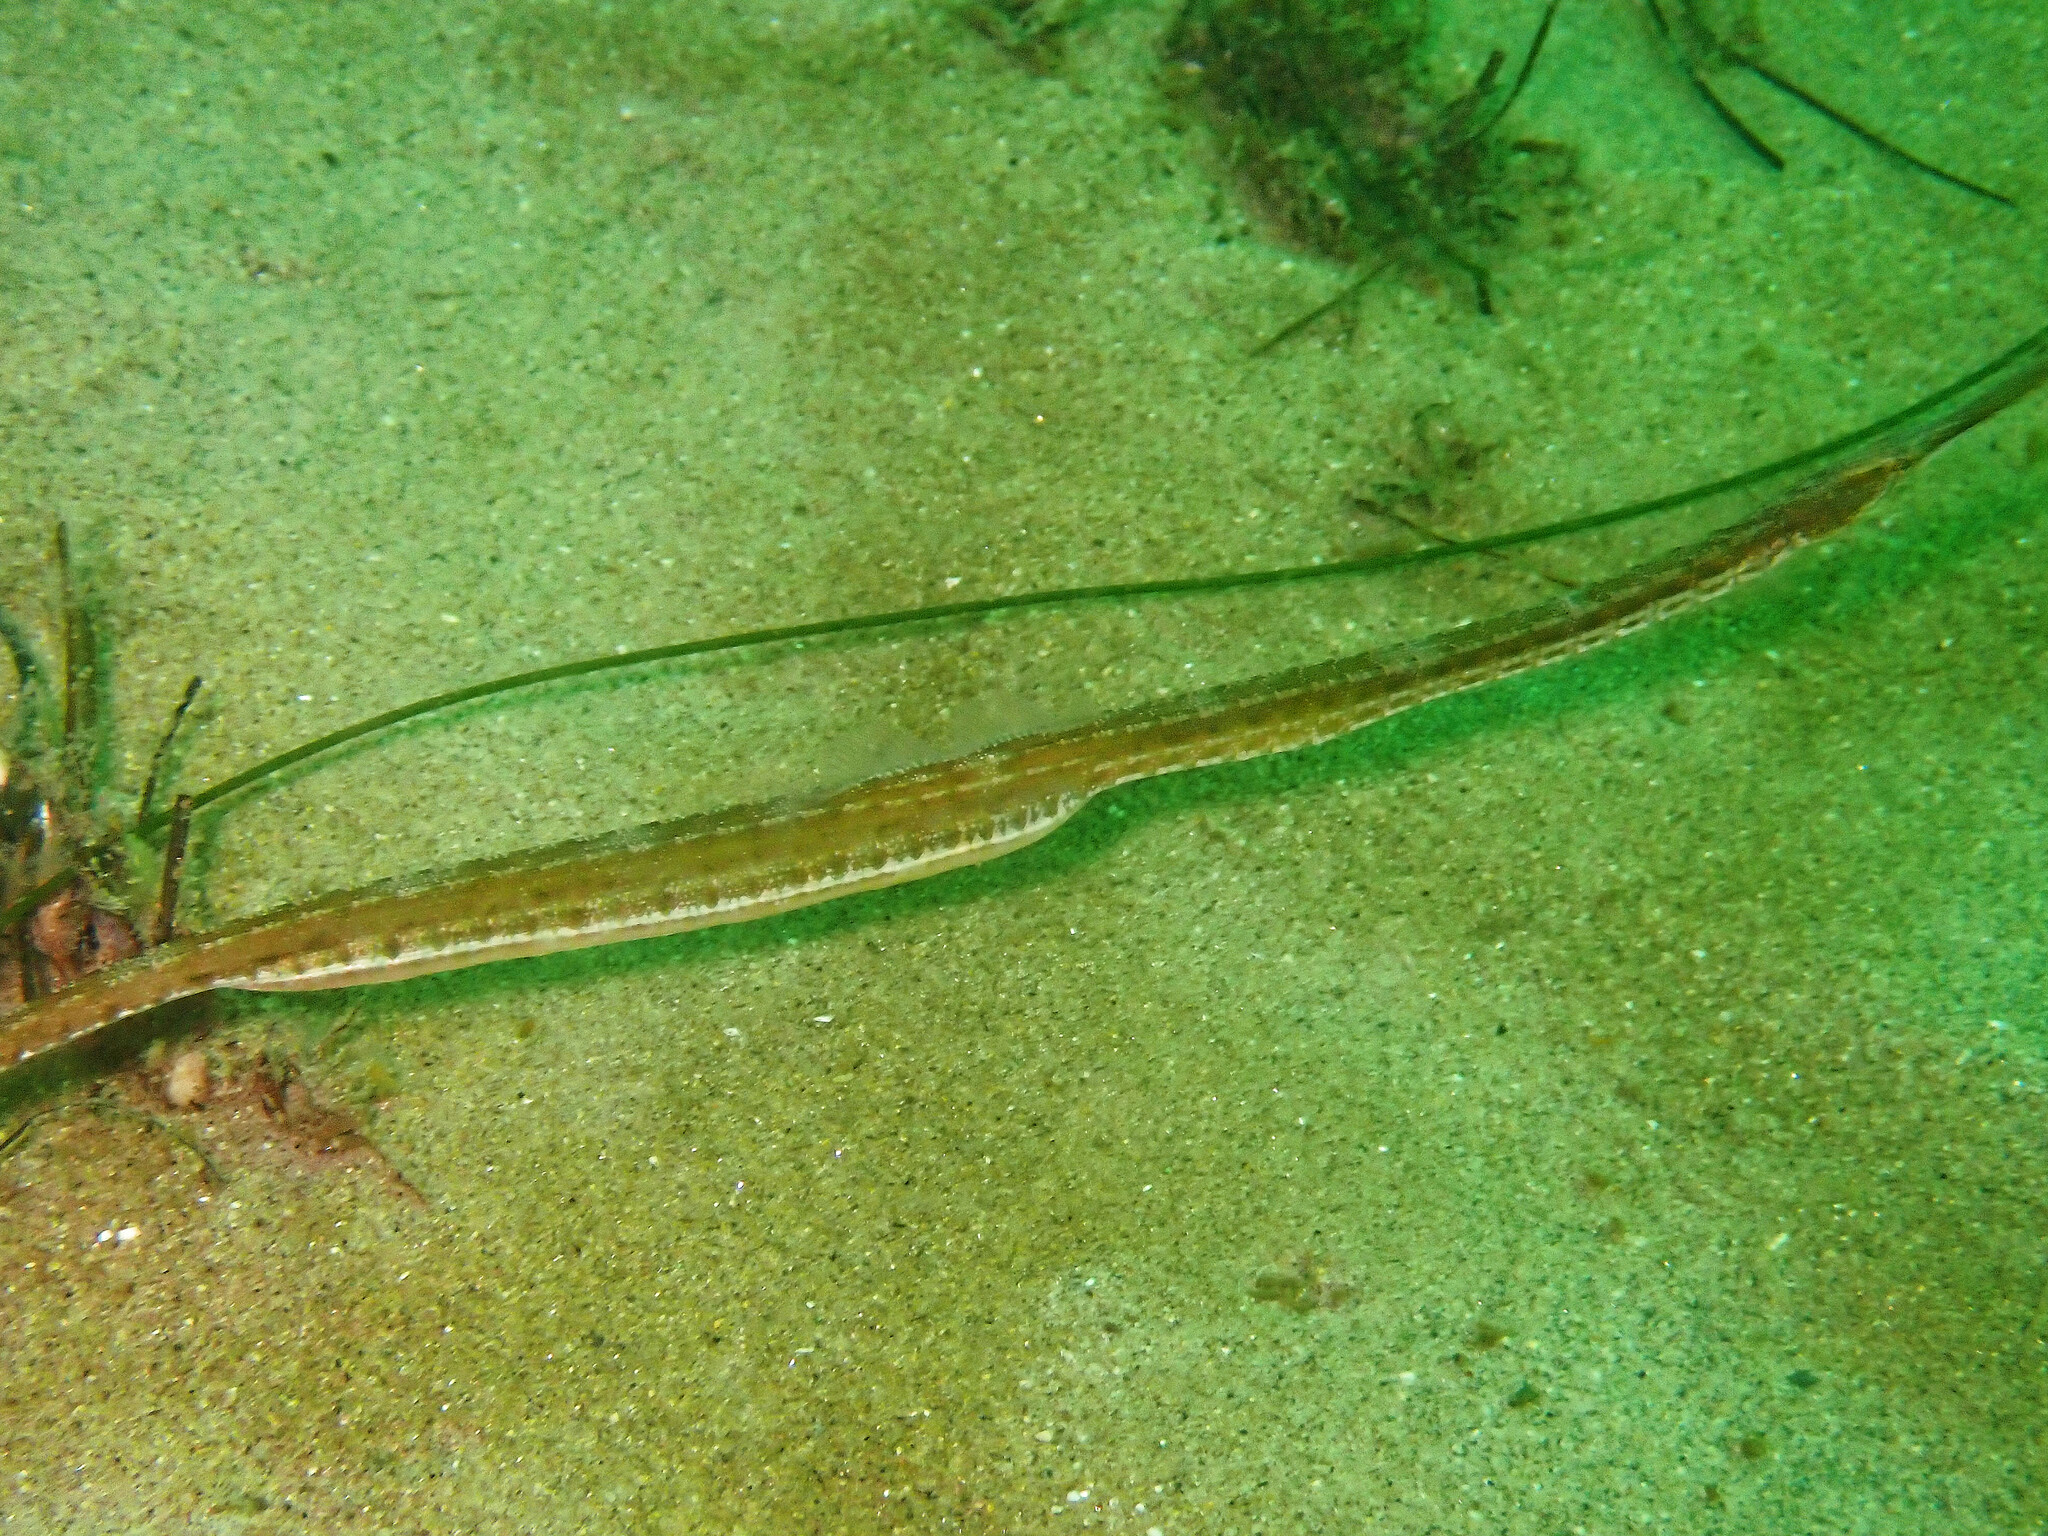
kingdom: Animalia
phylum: Chordata
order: Syngnathiformes
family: Syngnathidae
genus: Syngnathus
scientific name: Syngnathus californiensis
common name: Great pipefish
